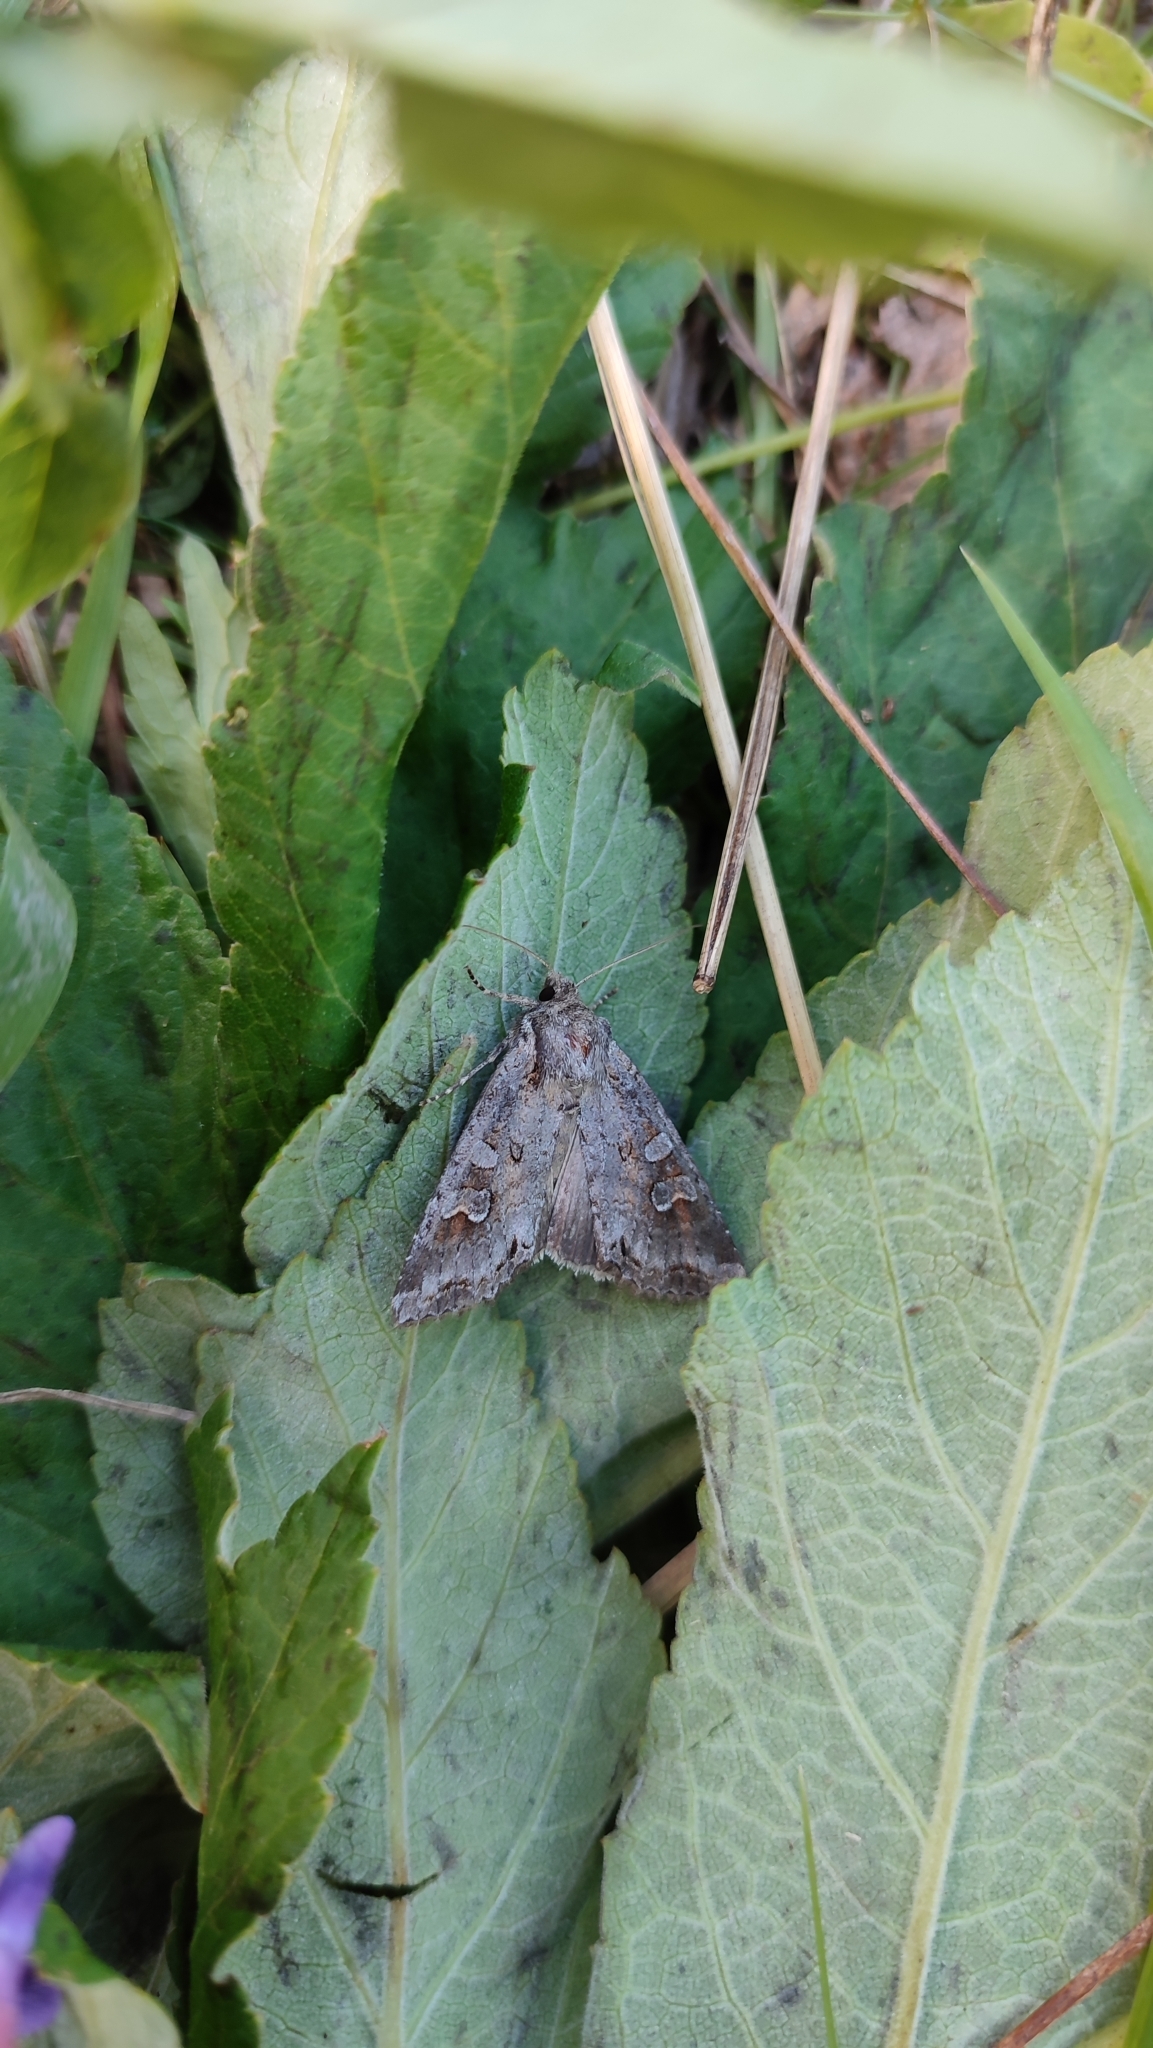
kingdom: Animalia
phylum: Arthropoda
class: Insecta
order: Lepidoptera
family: Noctuidae
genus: Polia
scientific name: Polia bombycina
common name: Pale shining brown
